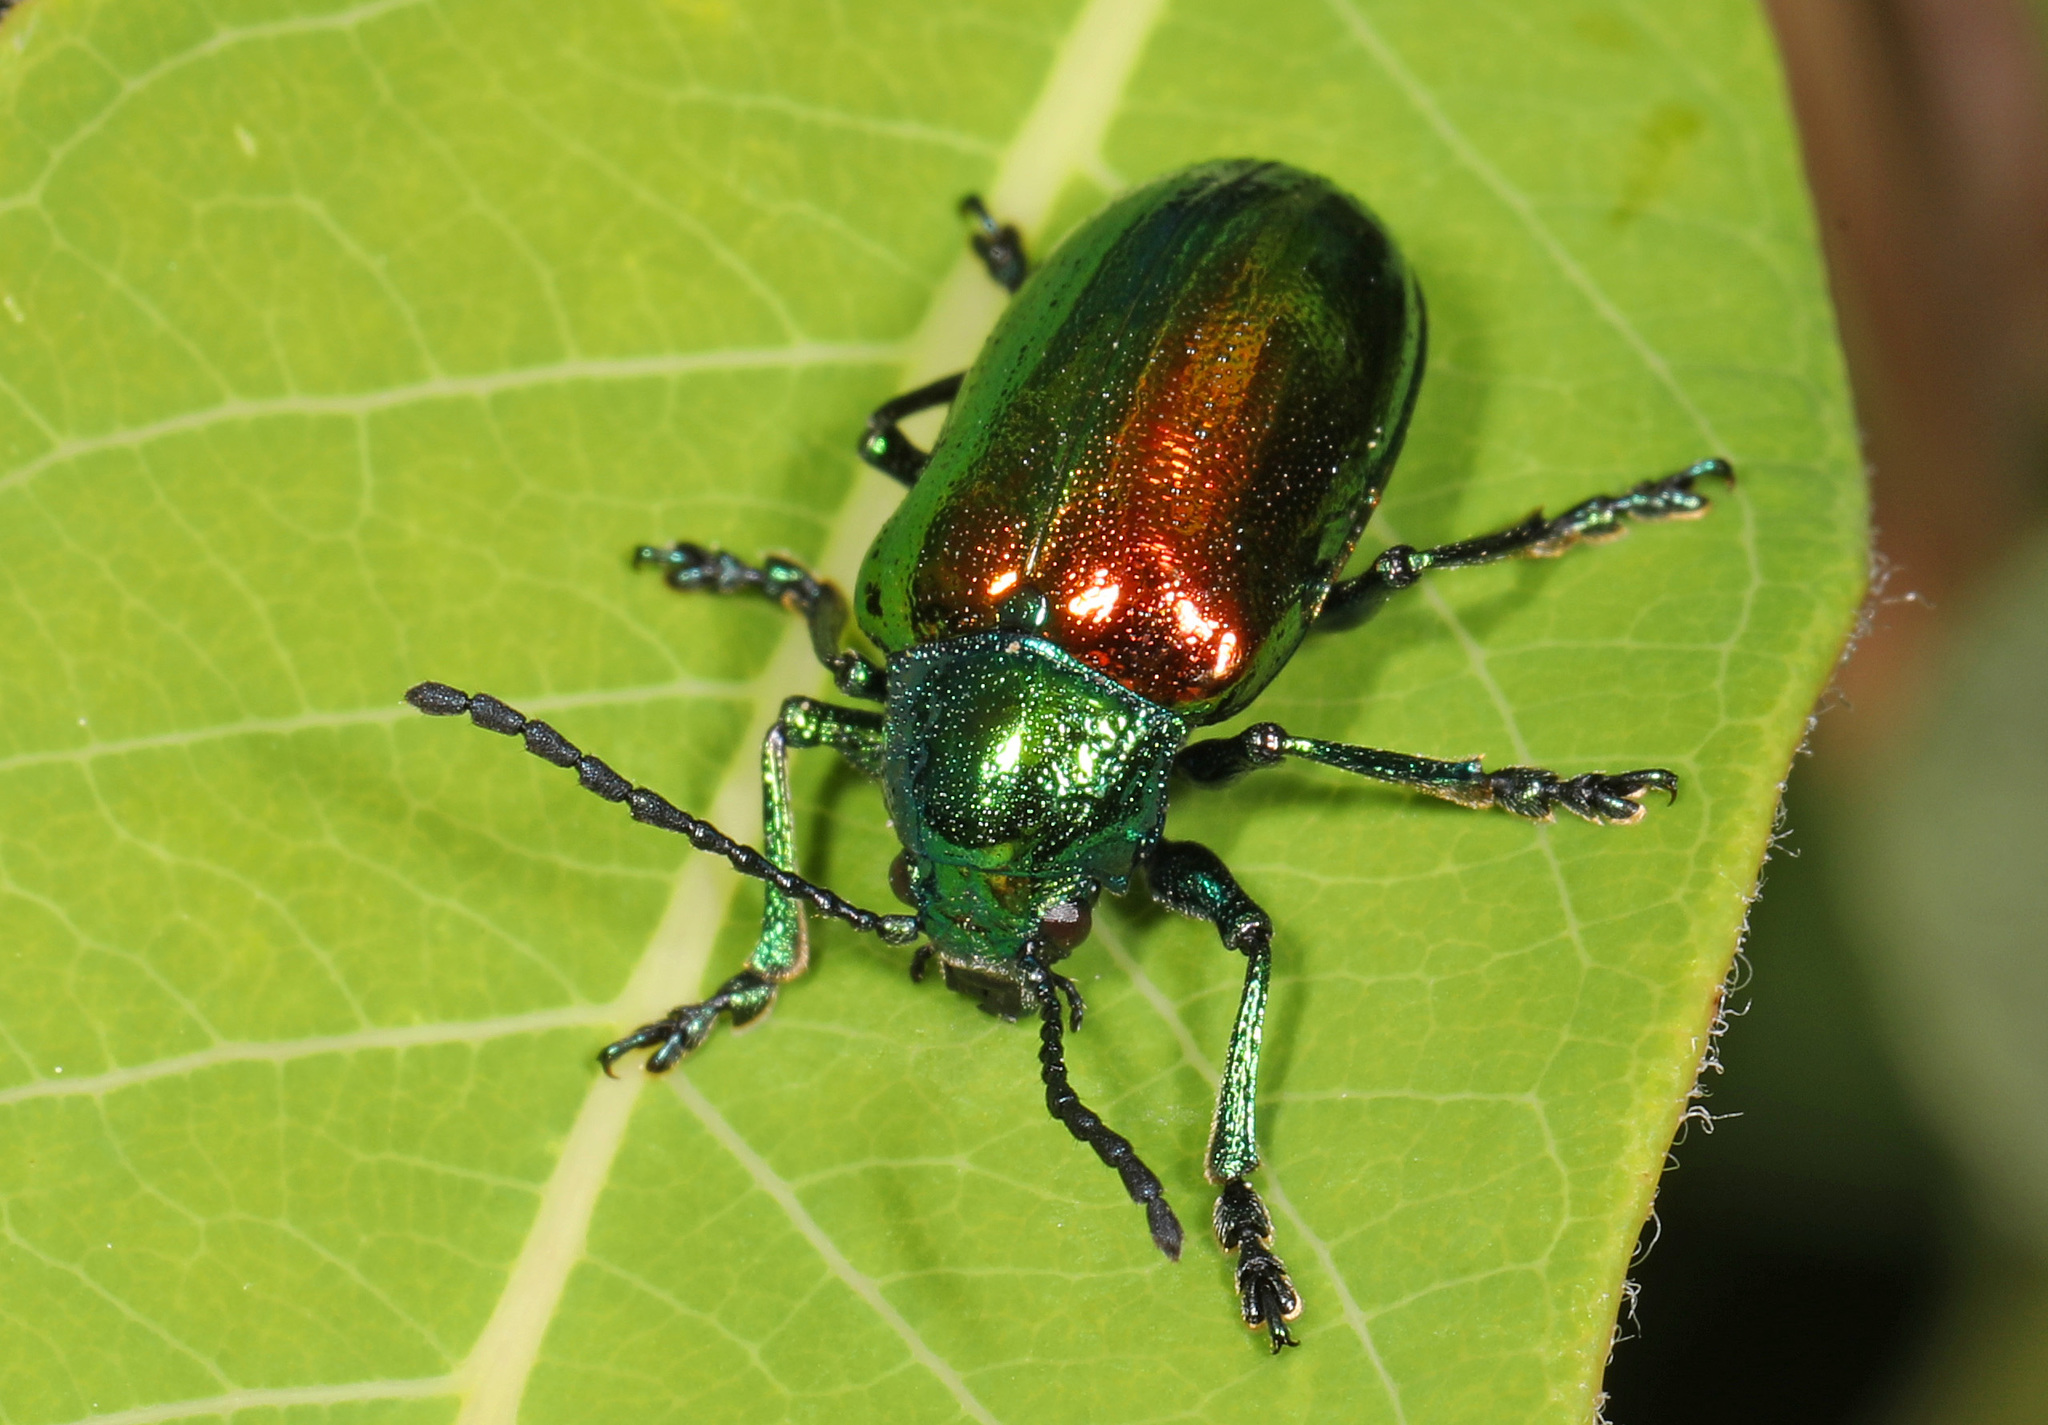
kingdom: Animalia
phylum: Arthropoda
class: Insecta
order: Coleoptera
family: Chrysomelidae
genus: Chrysochus
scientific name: Chrysochus auratus
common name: Dogbane leaf beetle
